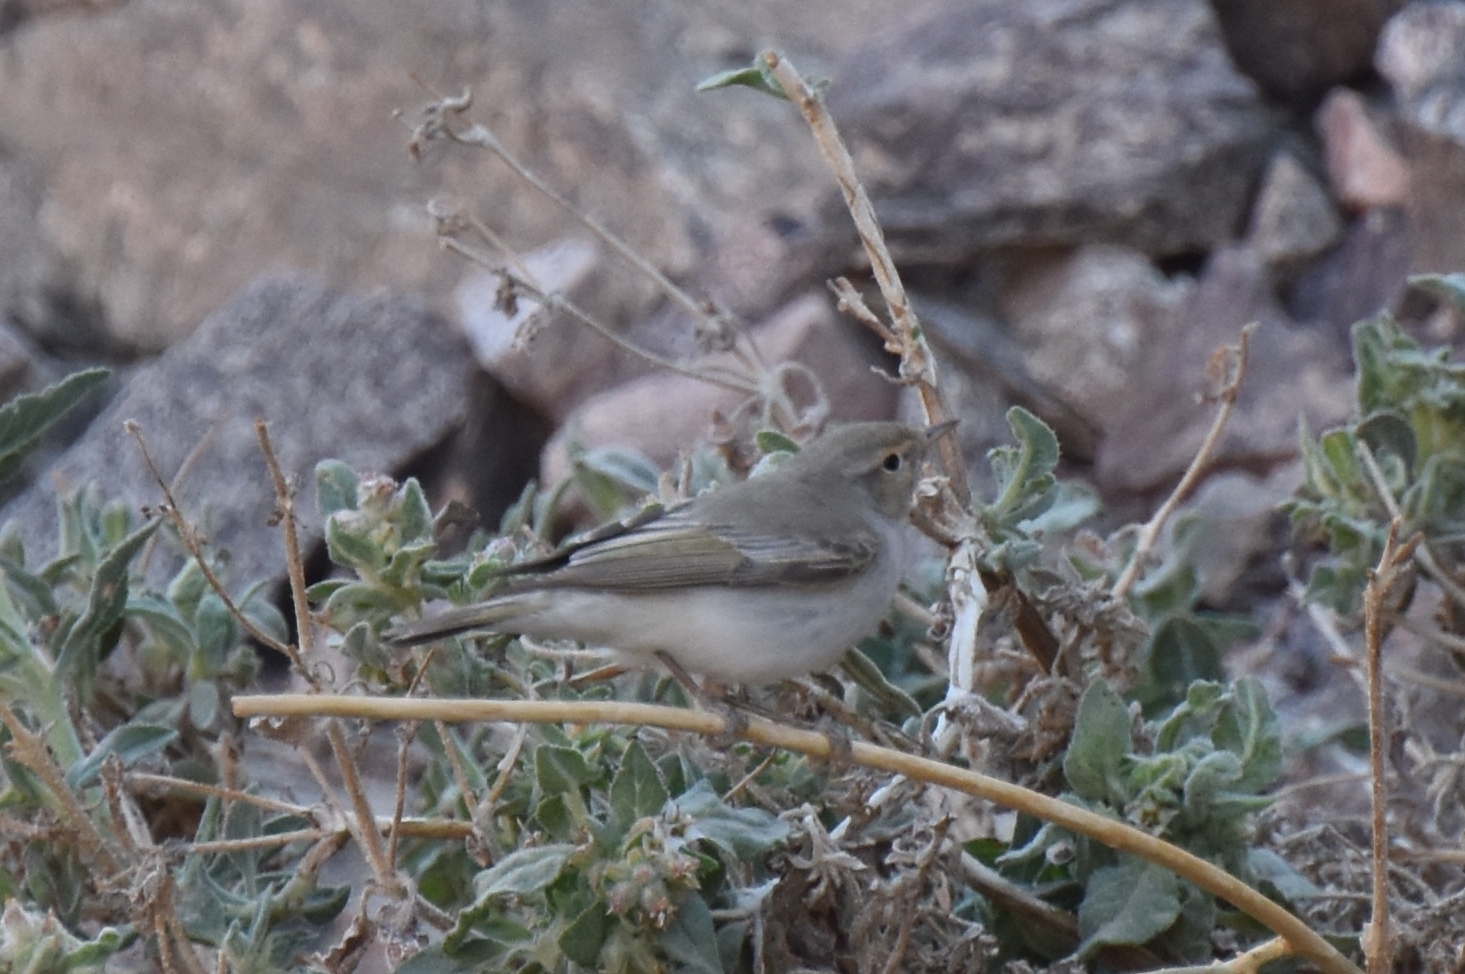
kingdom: Animalia
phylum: Chordata
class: Aves
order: Passeriformes
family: Phylloscopidae
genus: Phylloscopus
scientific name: Phylloscopus orientalis
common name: Eastern bonelli's warbler
